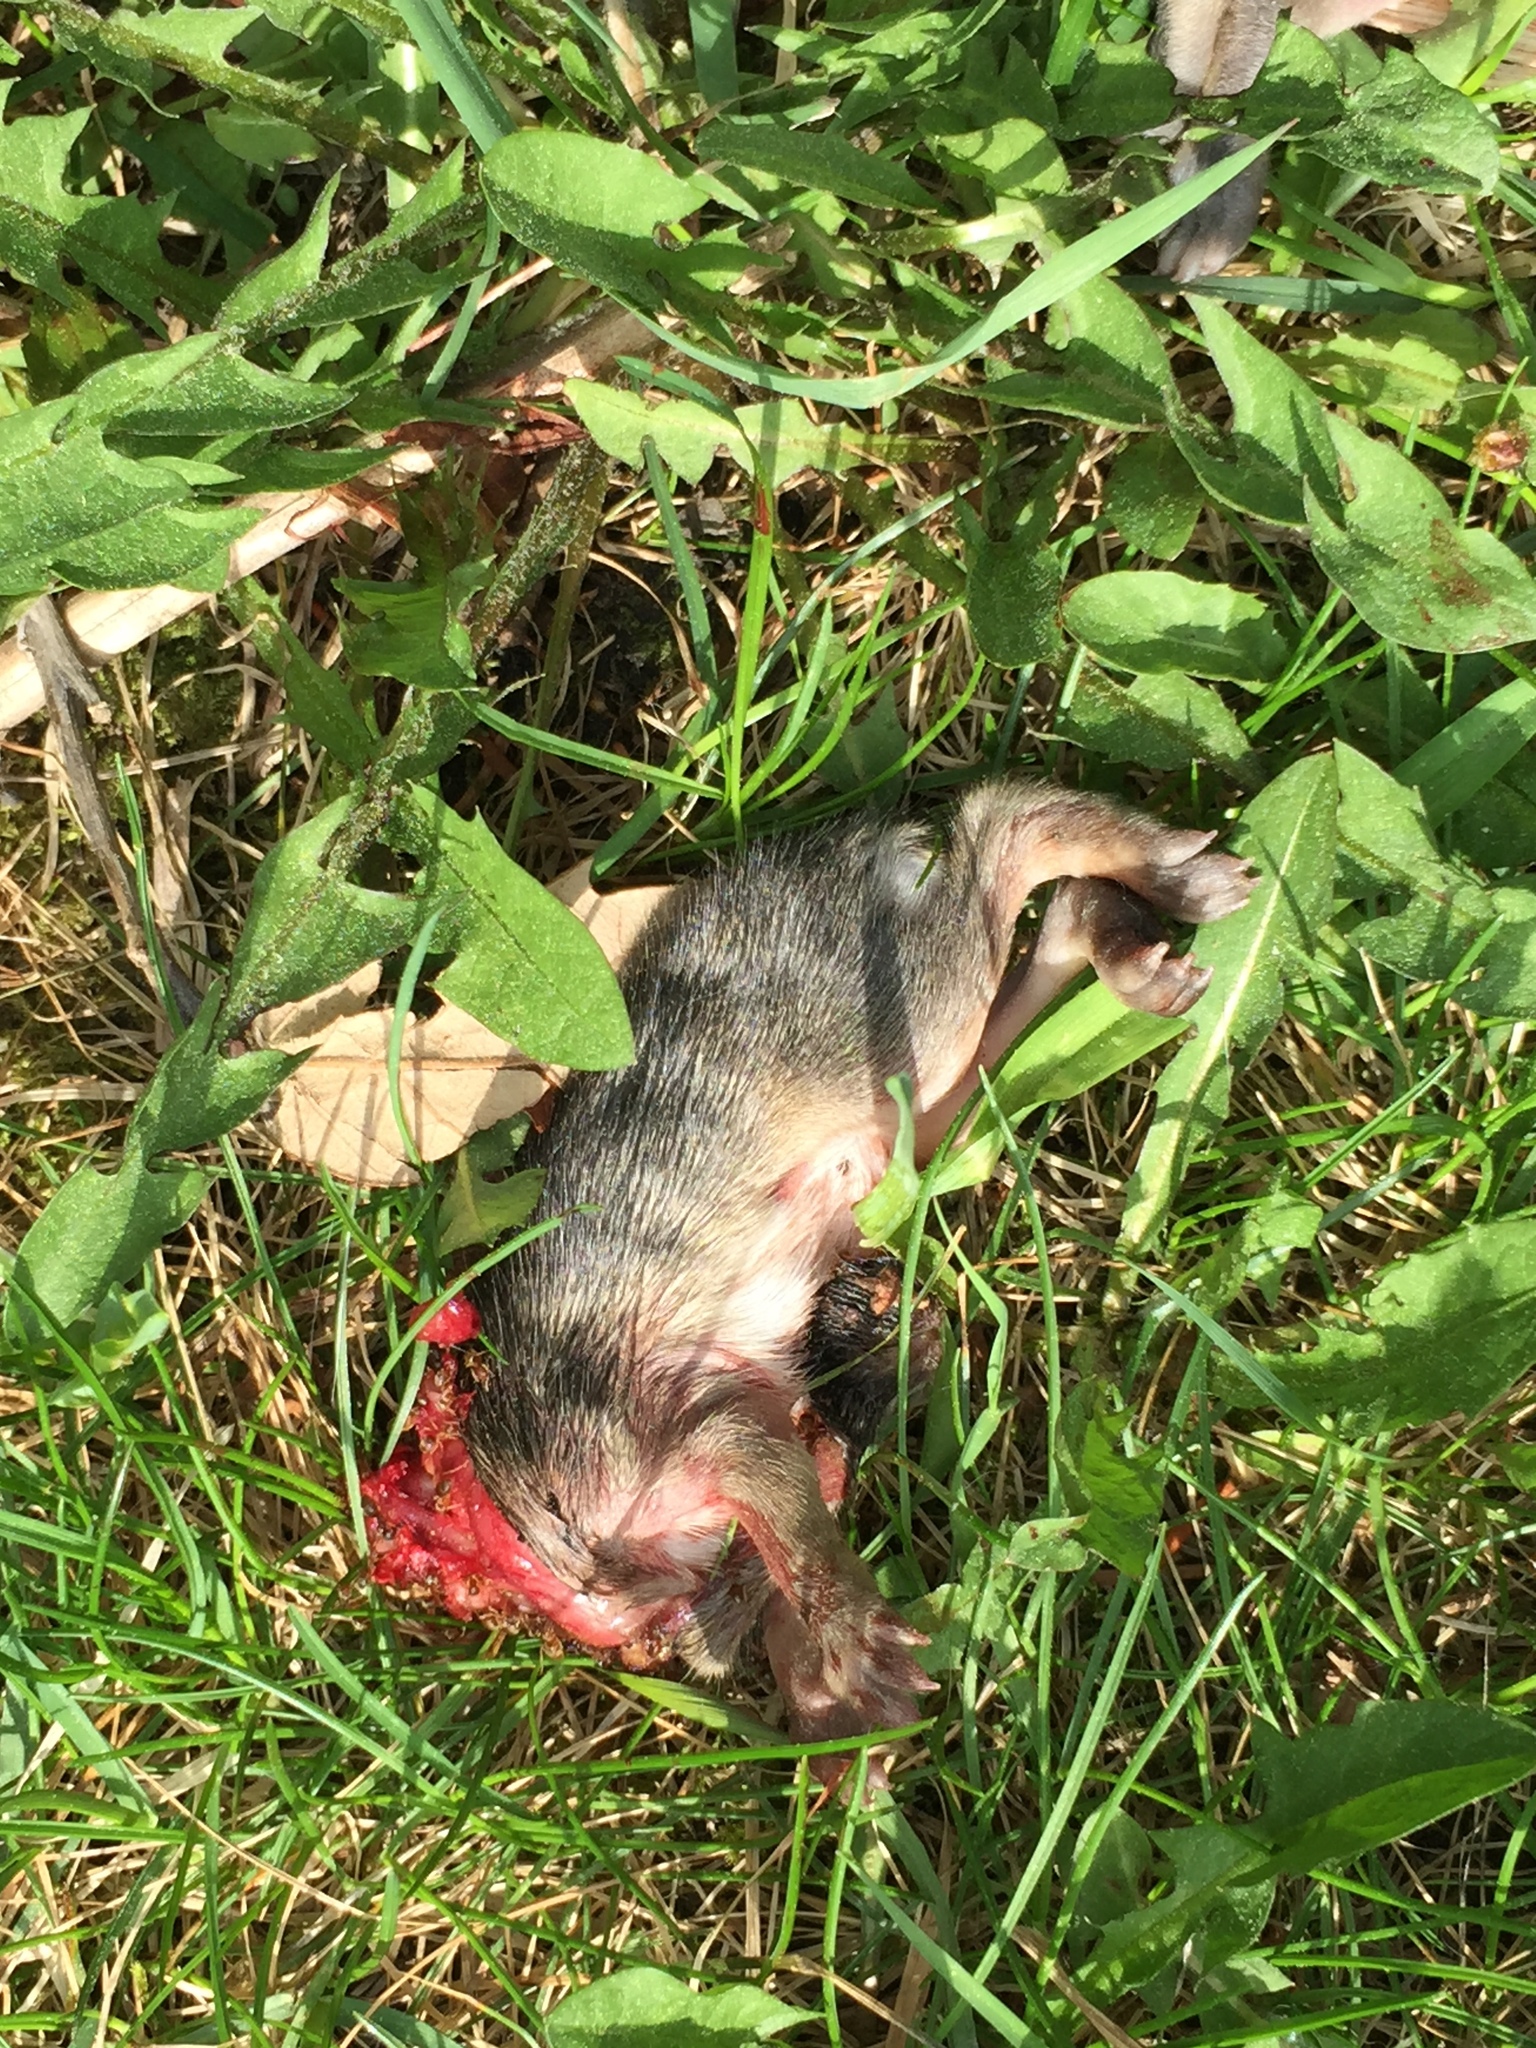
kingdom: Animalia
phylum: Chordata
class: Mammalia
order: Lagomorpha
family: Leporidae
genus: Sylvilagus
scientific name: Sylvilagus floridanus
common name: Eastern cottontail
